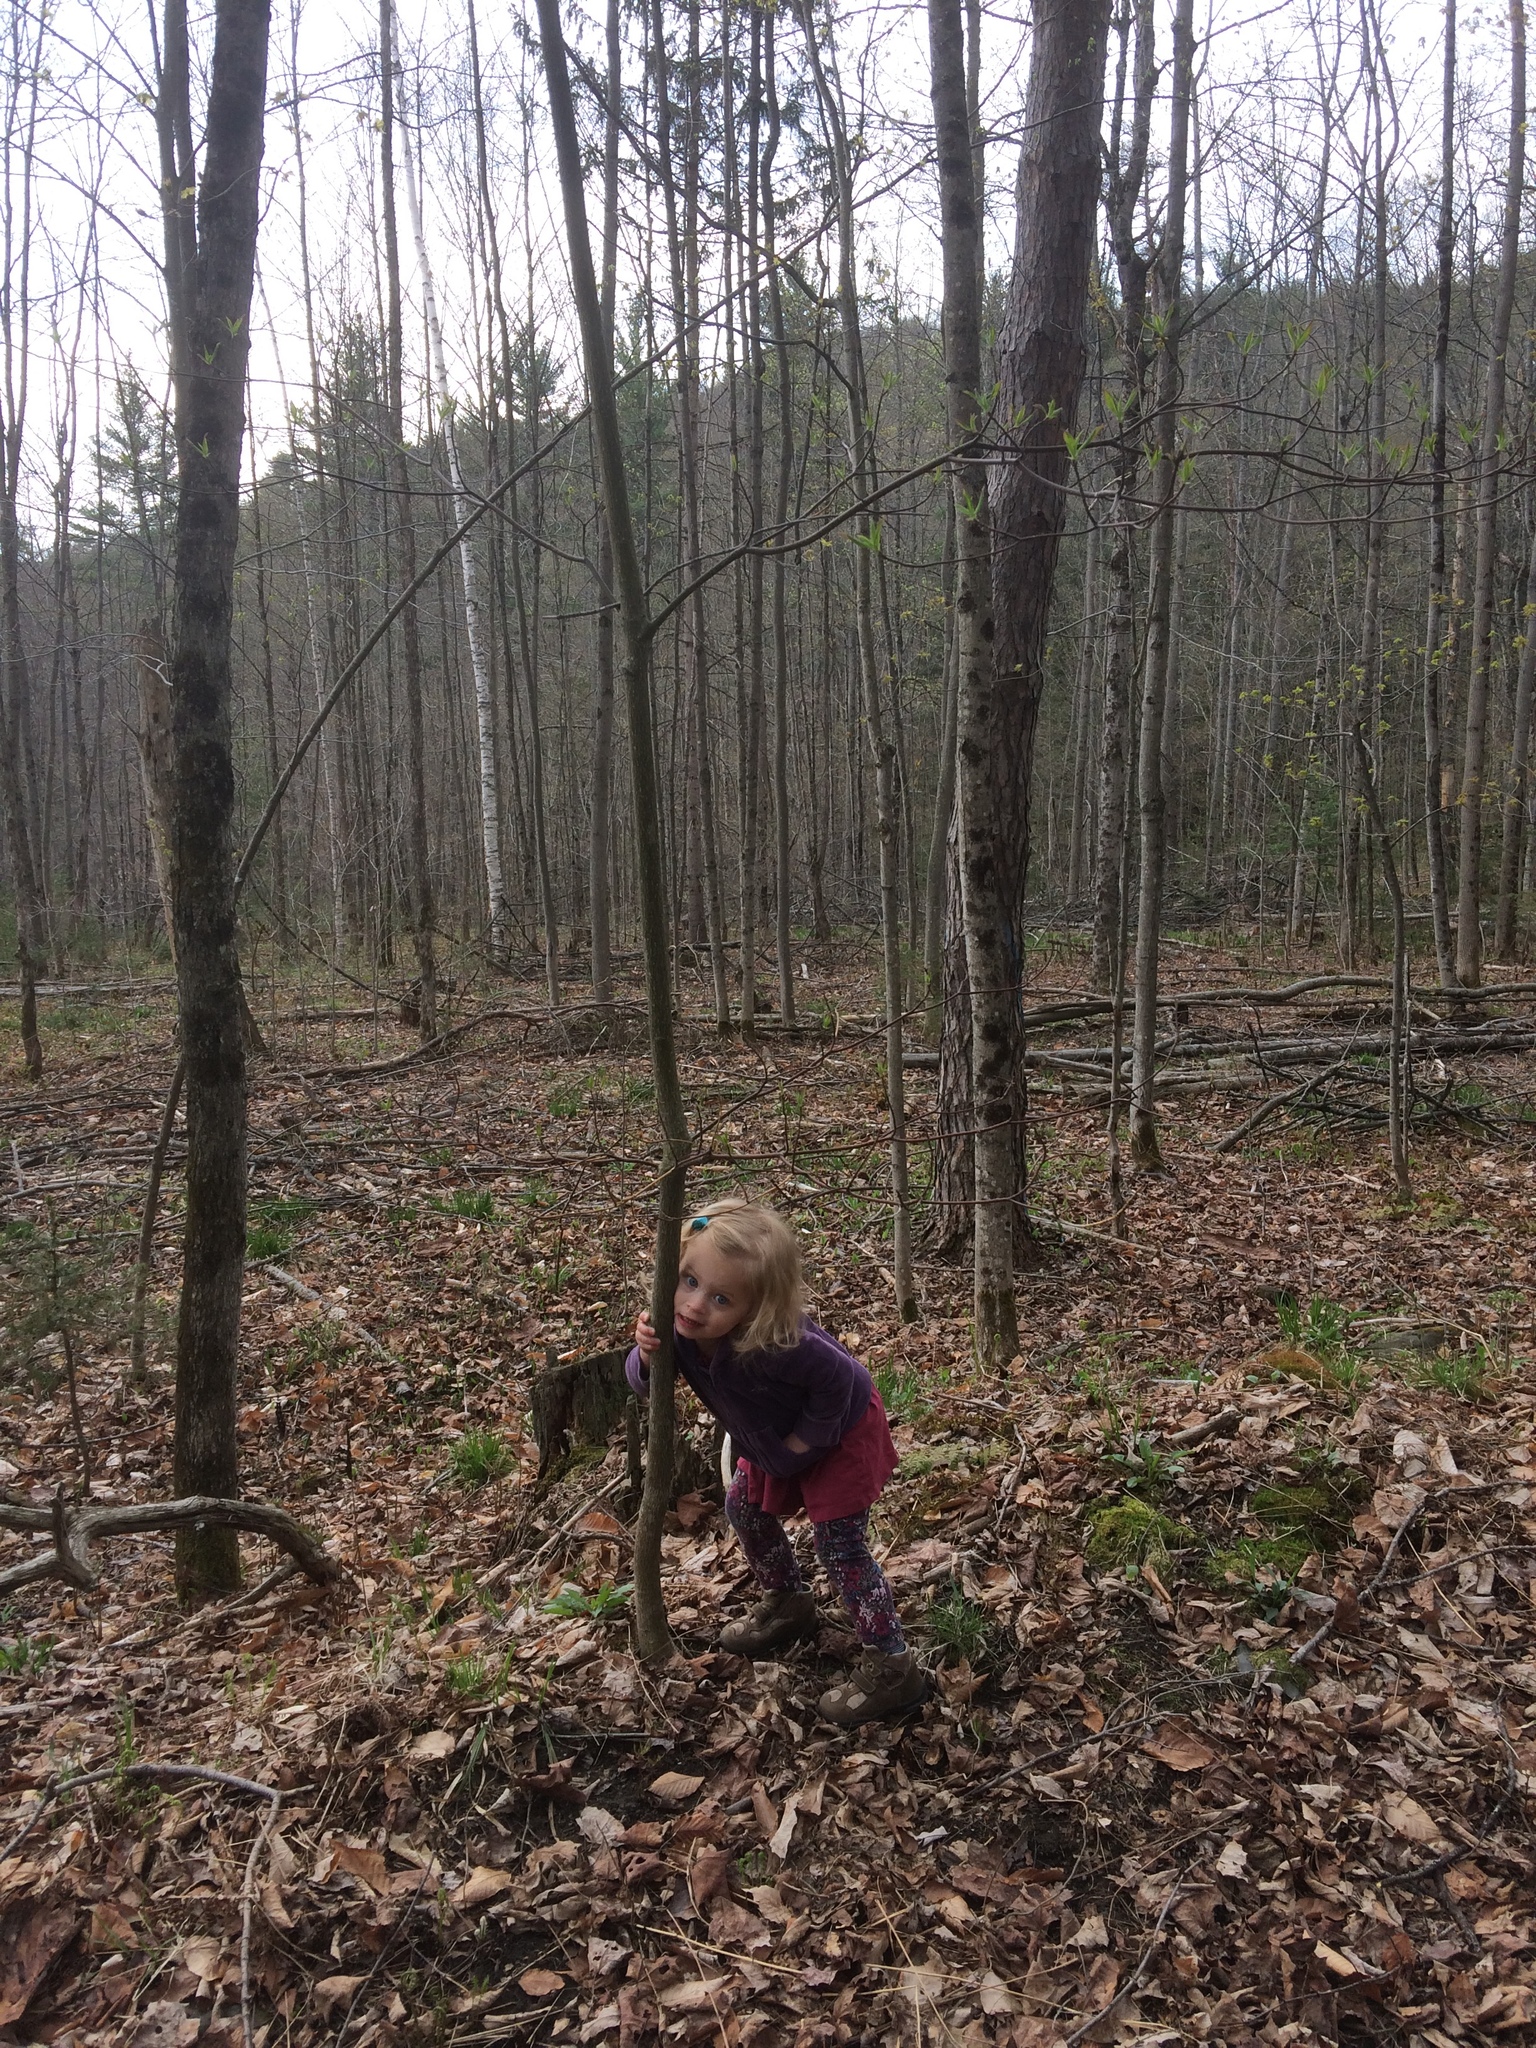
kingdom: Plantae
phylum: Tracheophyta
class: Magnoliopsida
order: Cornales
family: Cornaceae
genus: Cornus
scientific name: Cornus alternifolia
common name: Pagoda dogwood
